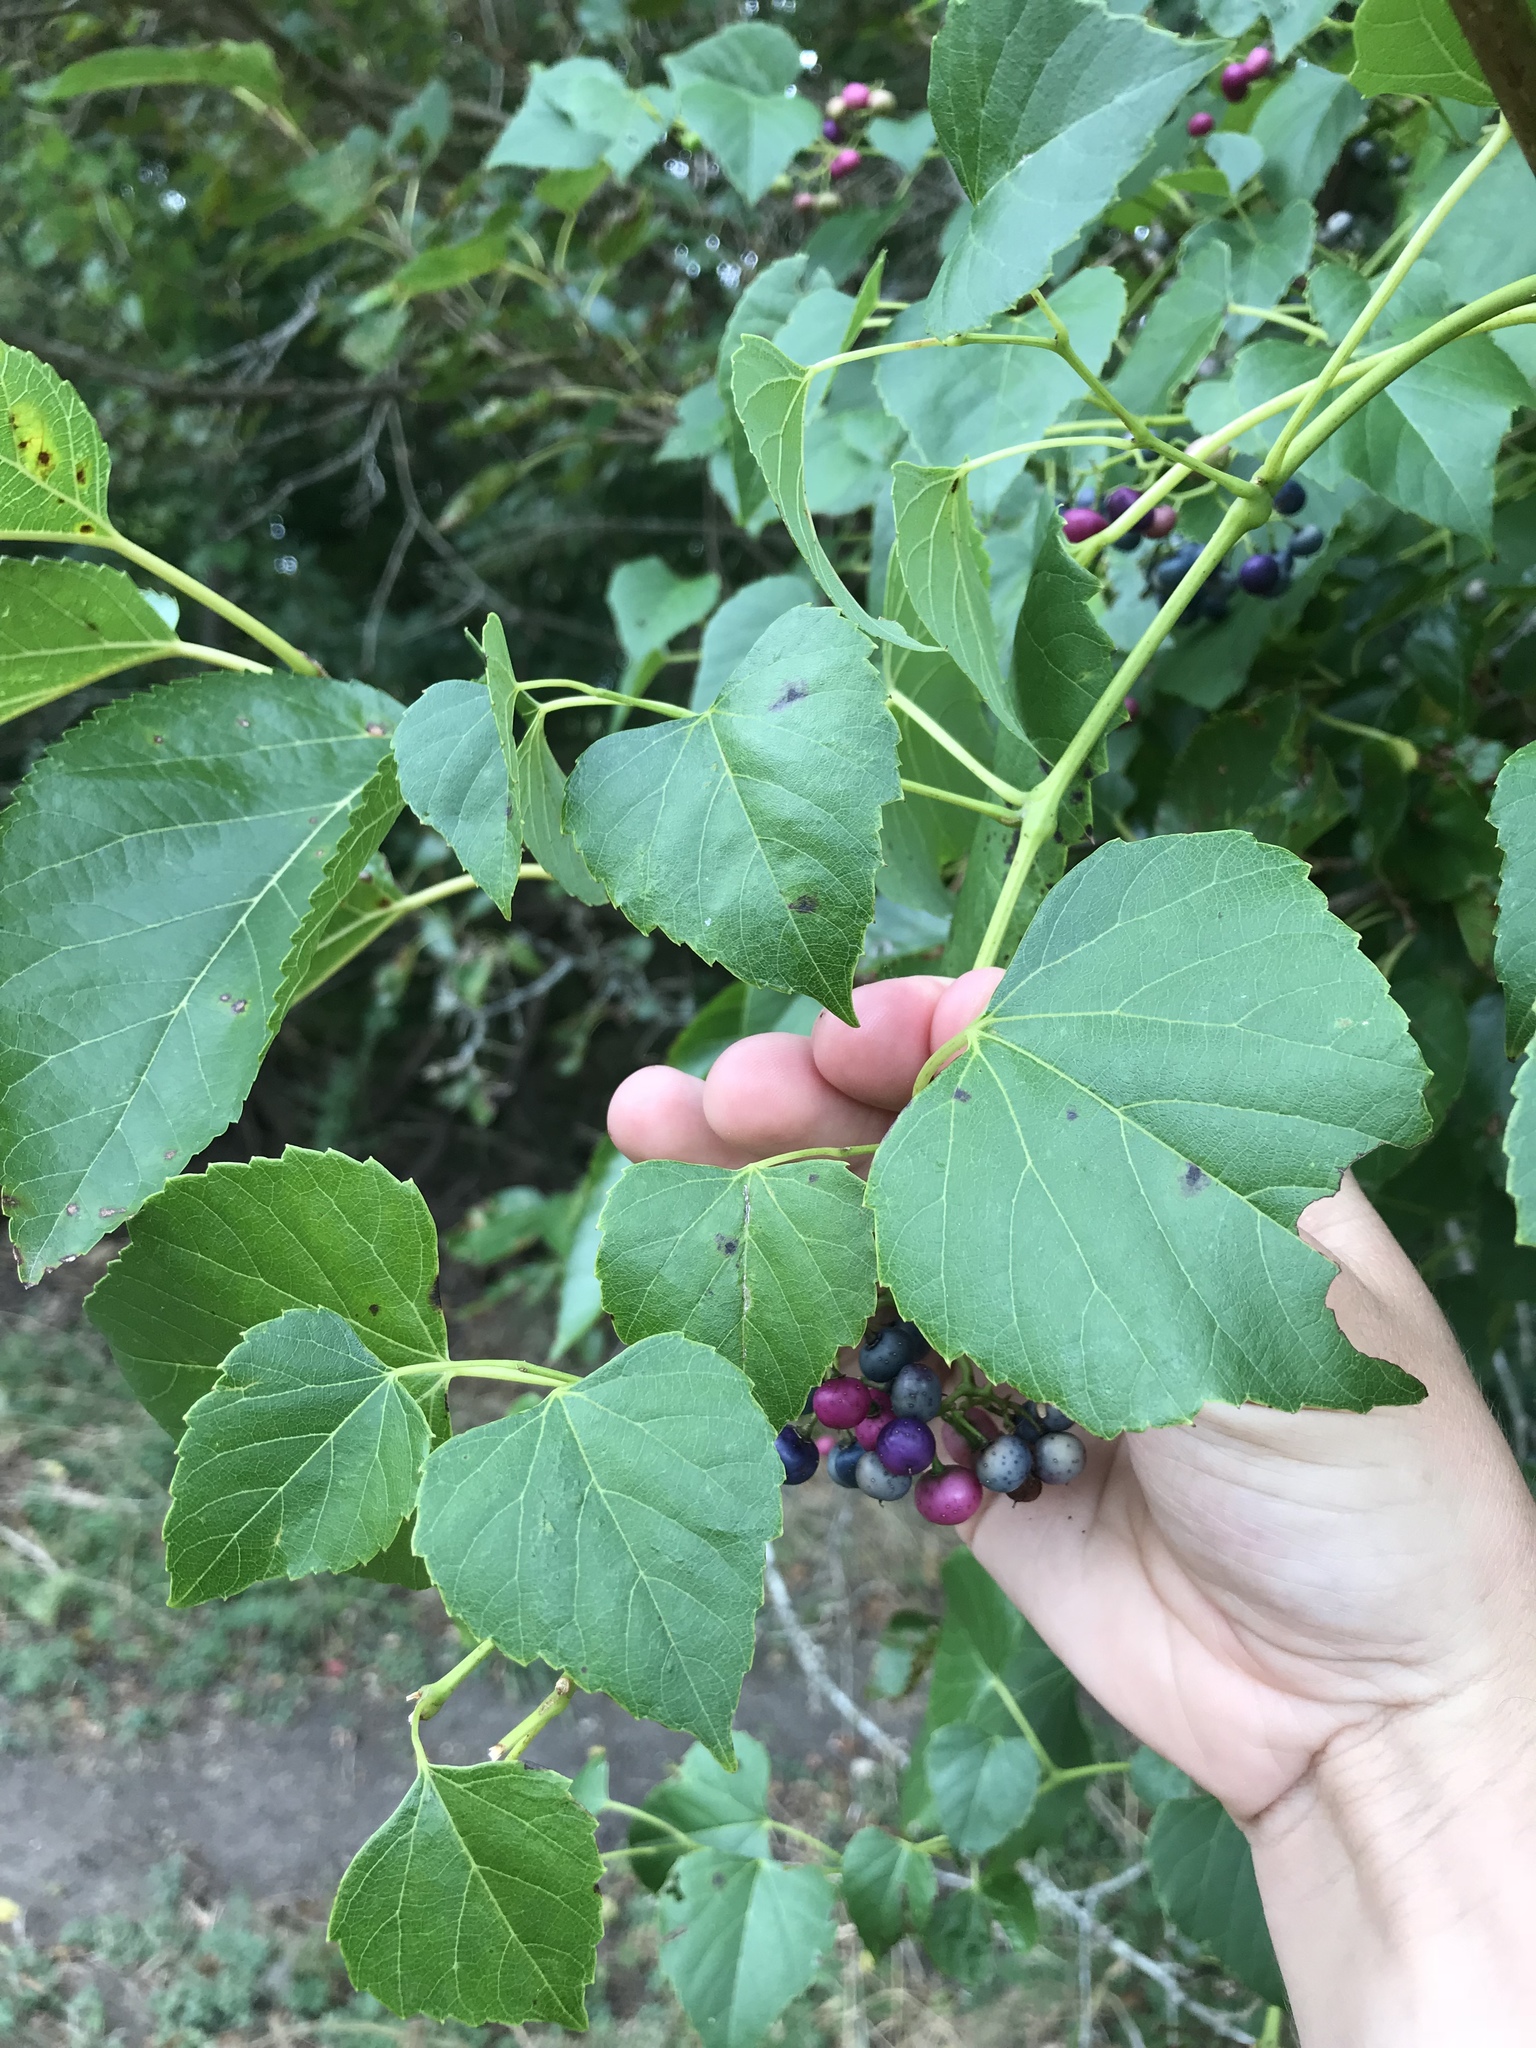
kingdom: Plantae
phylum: Tracheophyta
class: Magnoliopsida
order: Vitales
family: Vitaceae
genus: Ampelopsis
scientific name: Ampelopsis cordata
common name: Heart-leaf ampelopsis
